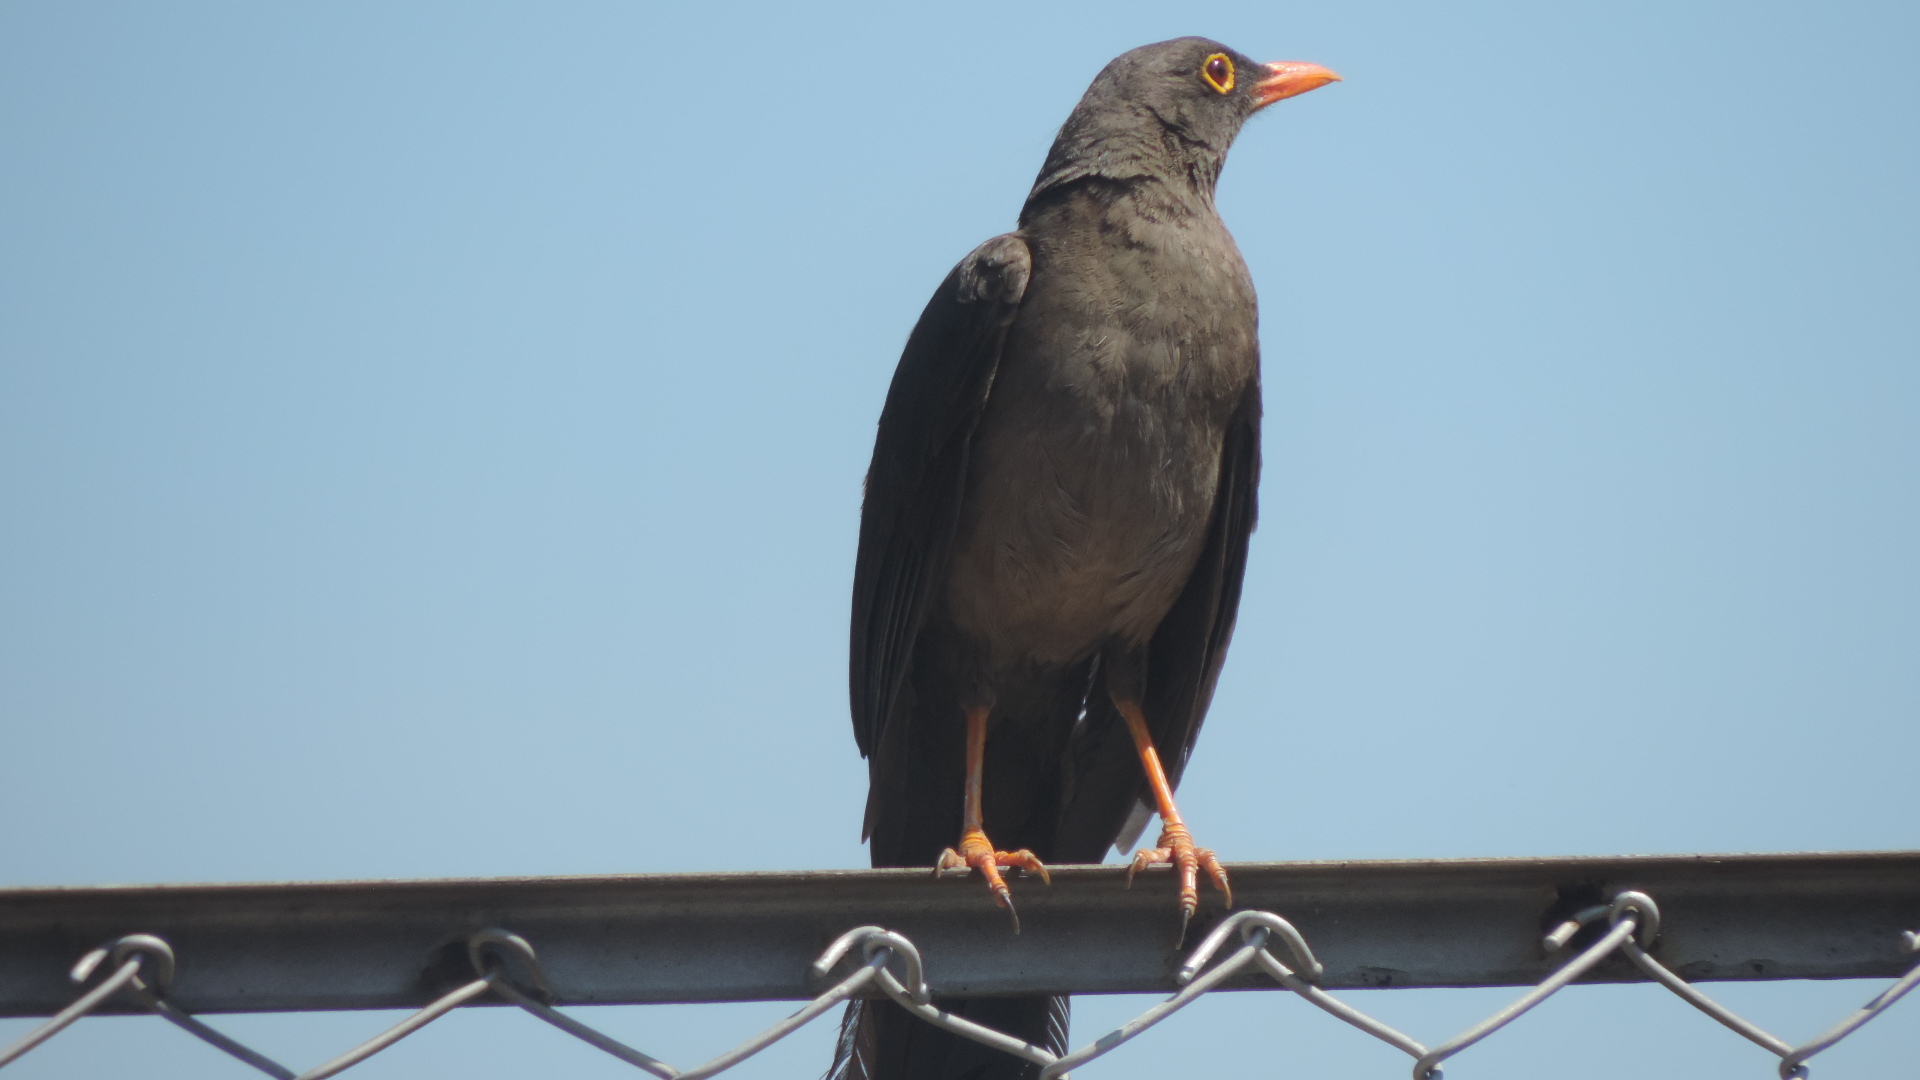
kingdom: Animalia
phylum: Chordata
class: Aves
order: Passeriformes
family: Turdidae
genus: Turdus
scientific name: Turdus fuscater
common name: Great thrush
